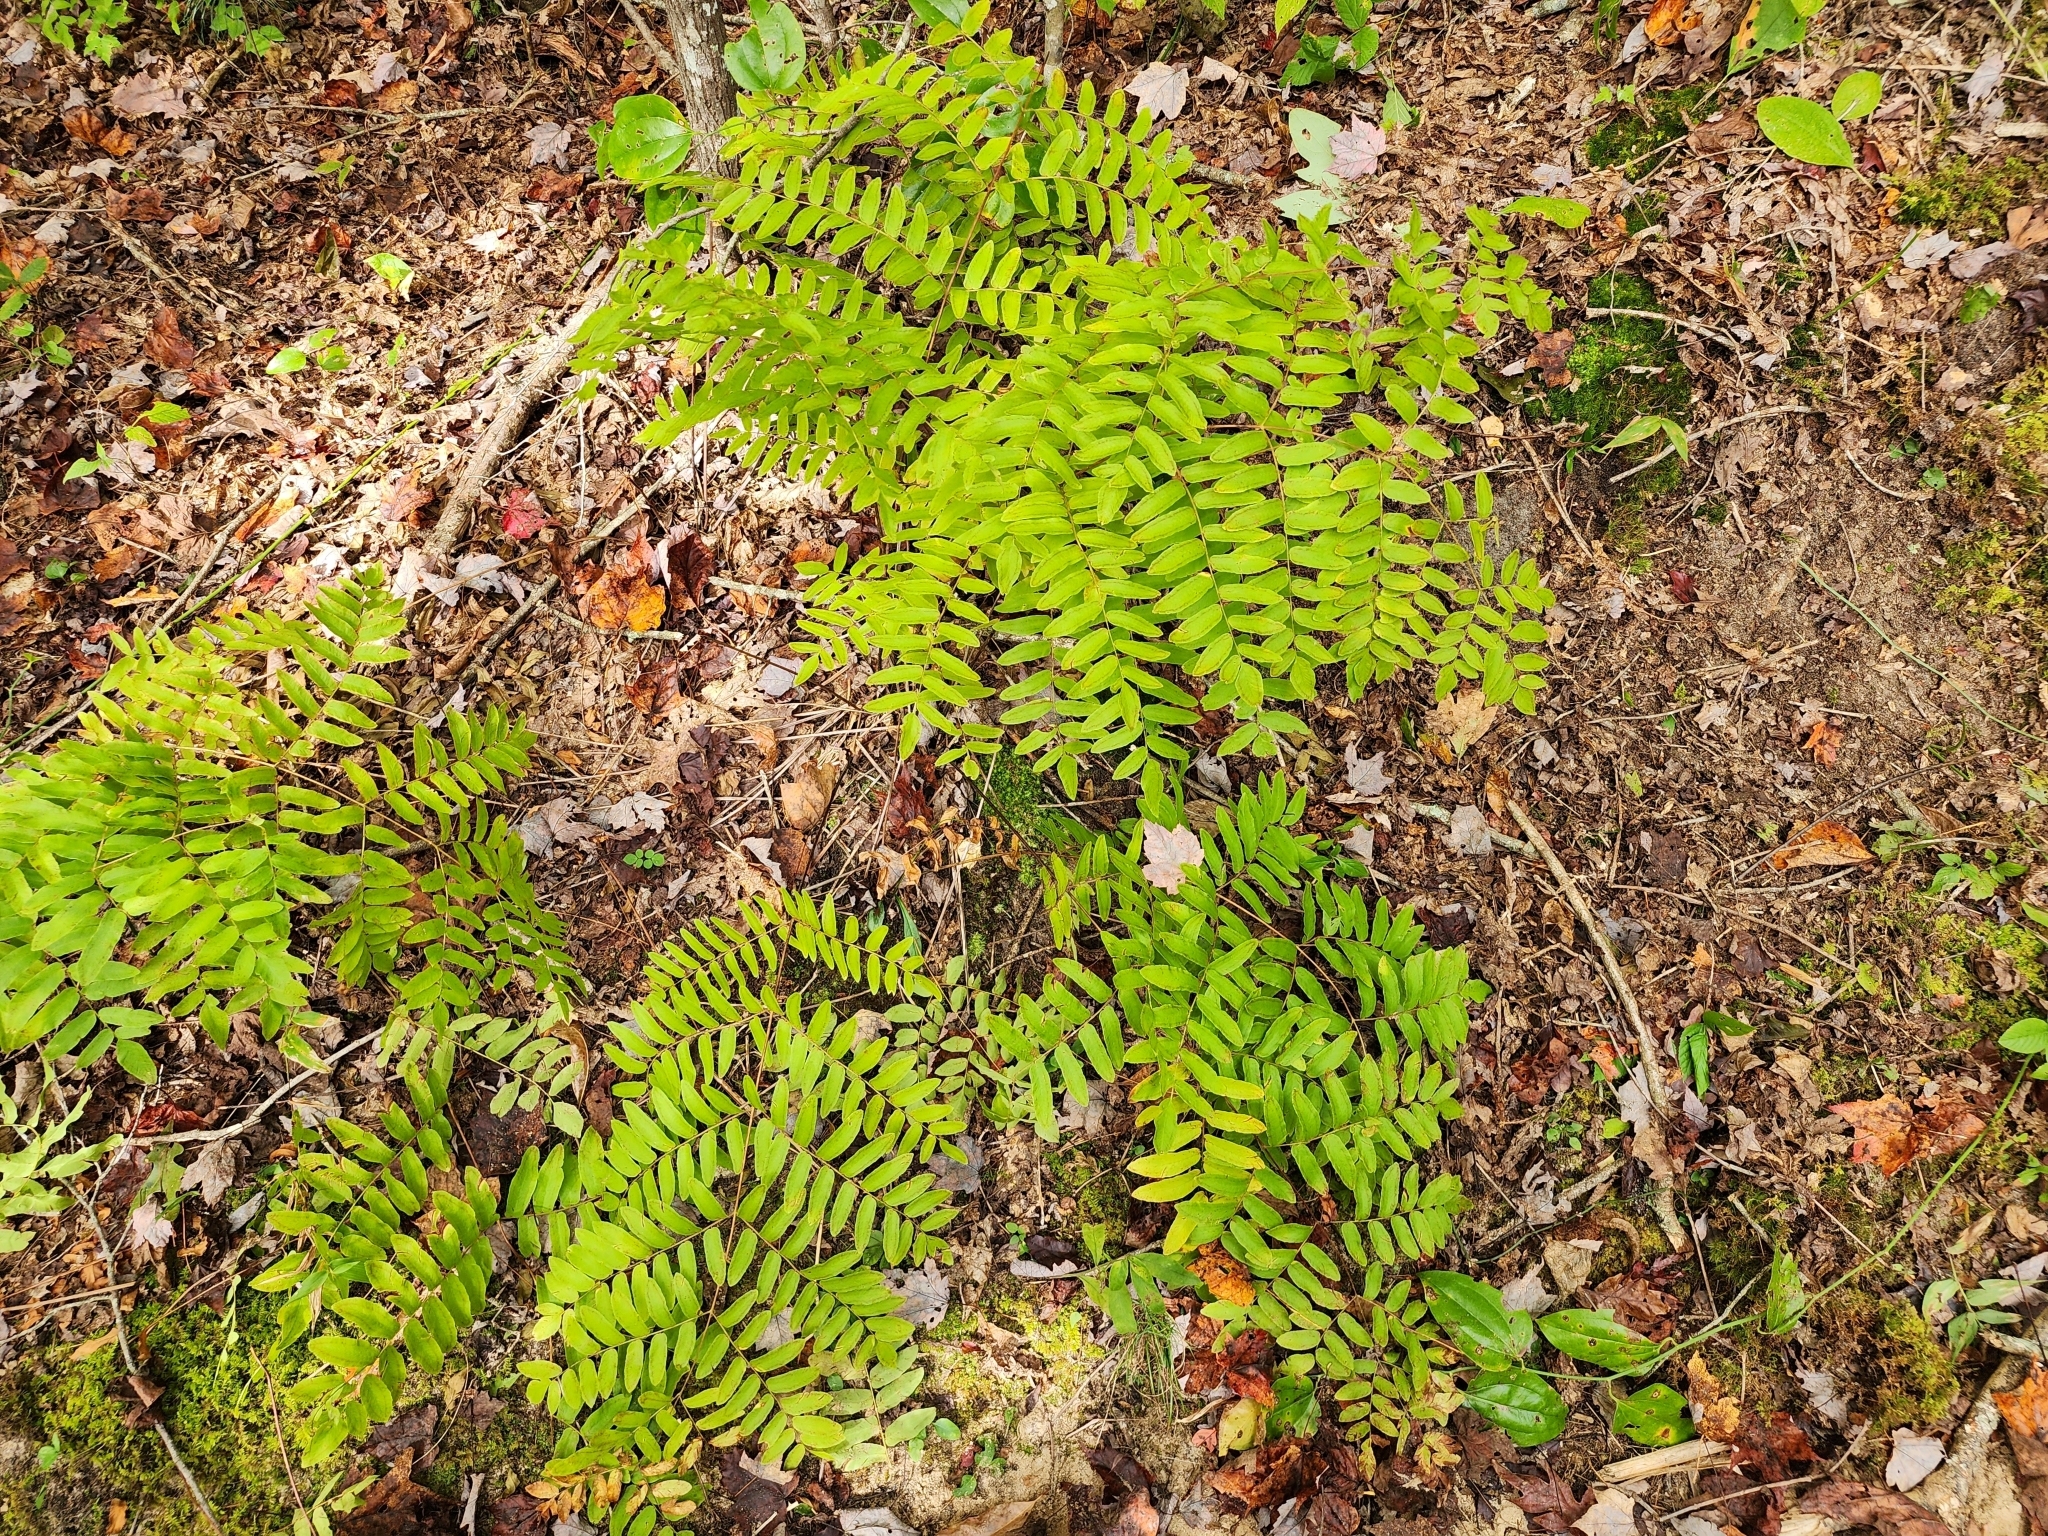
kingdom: Plantae
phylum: Tracheophyta
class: Polypodiopsida
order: Osmundales
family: Osmundaceae
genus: Osmunda
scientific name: Osmunda spectabilis
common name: American royal fern
